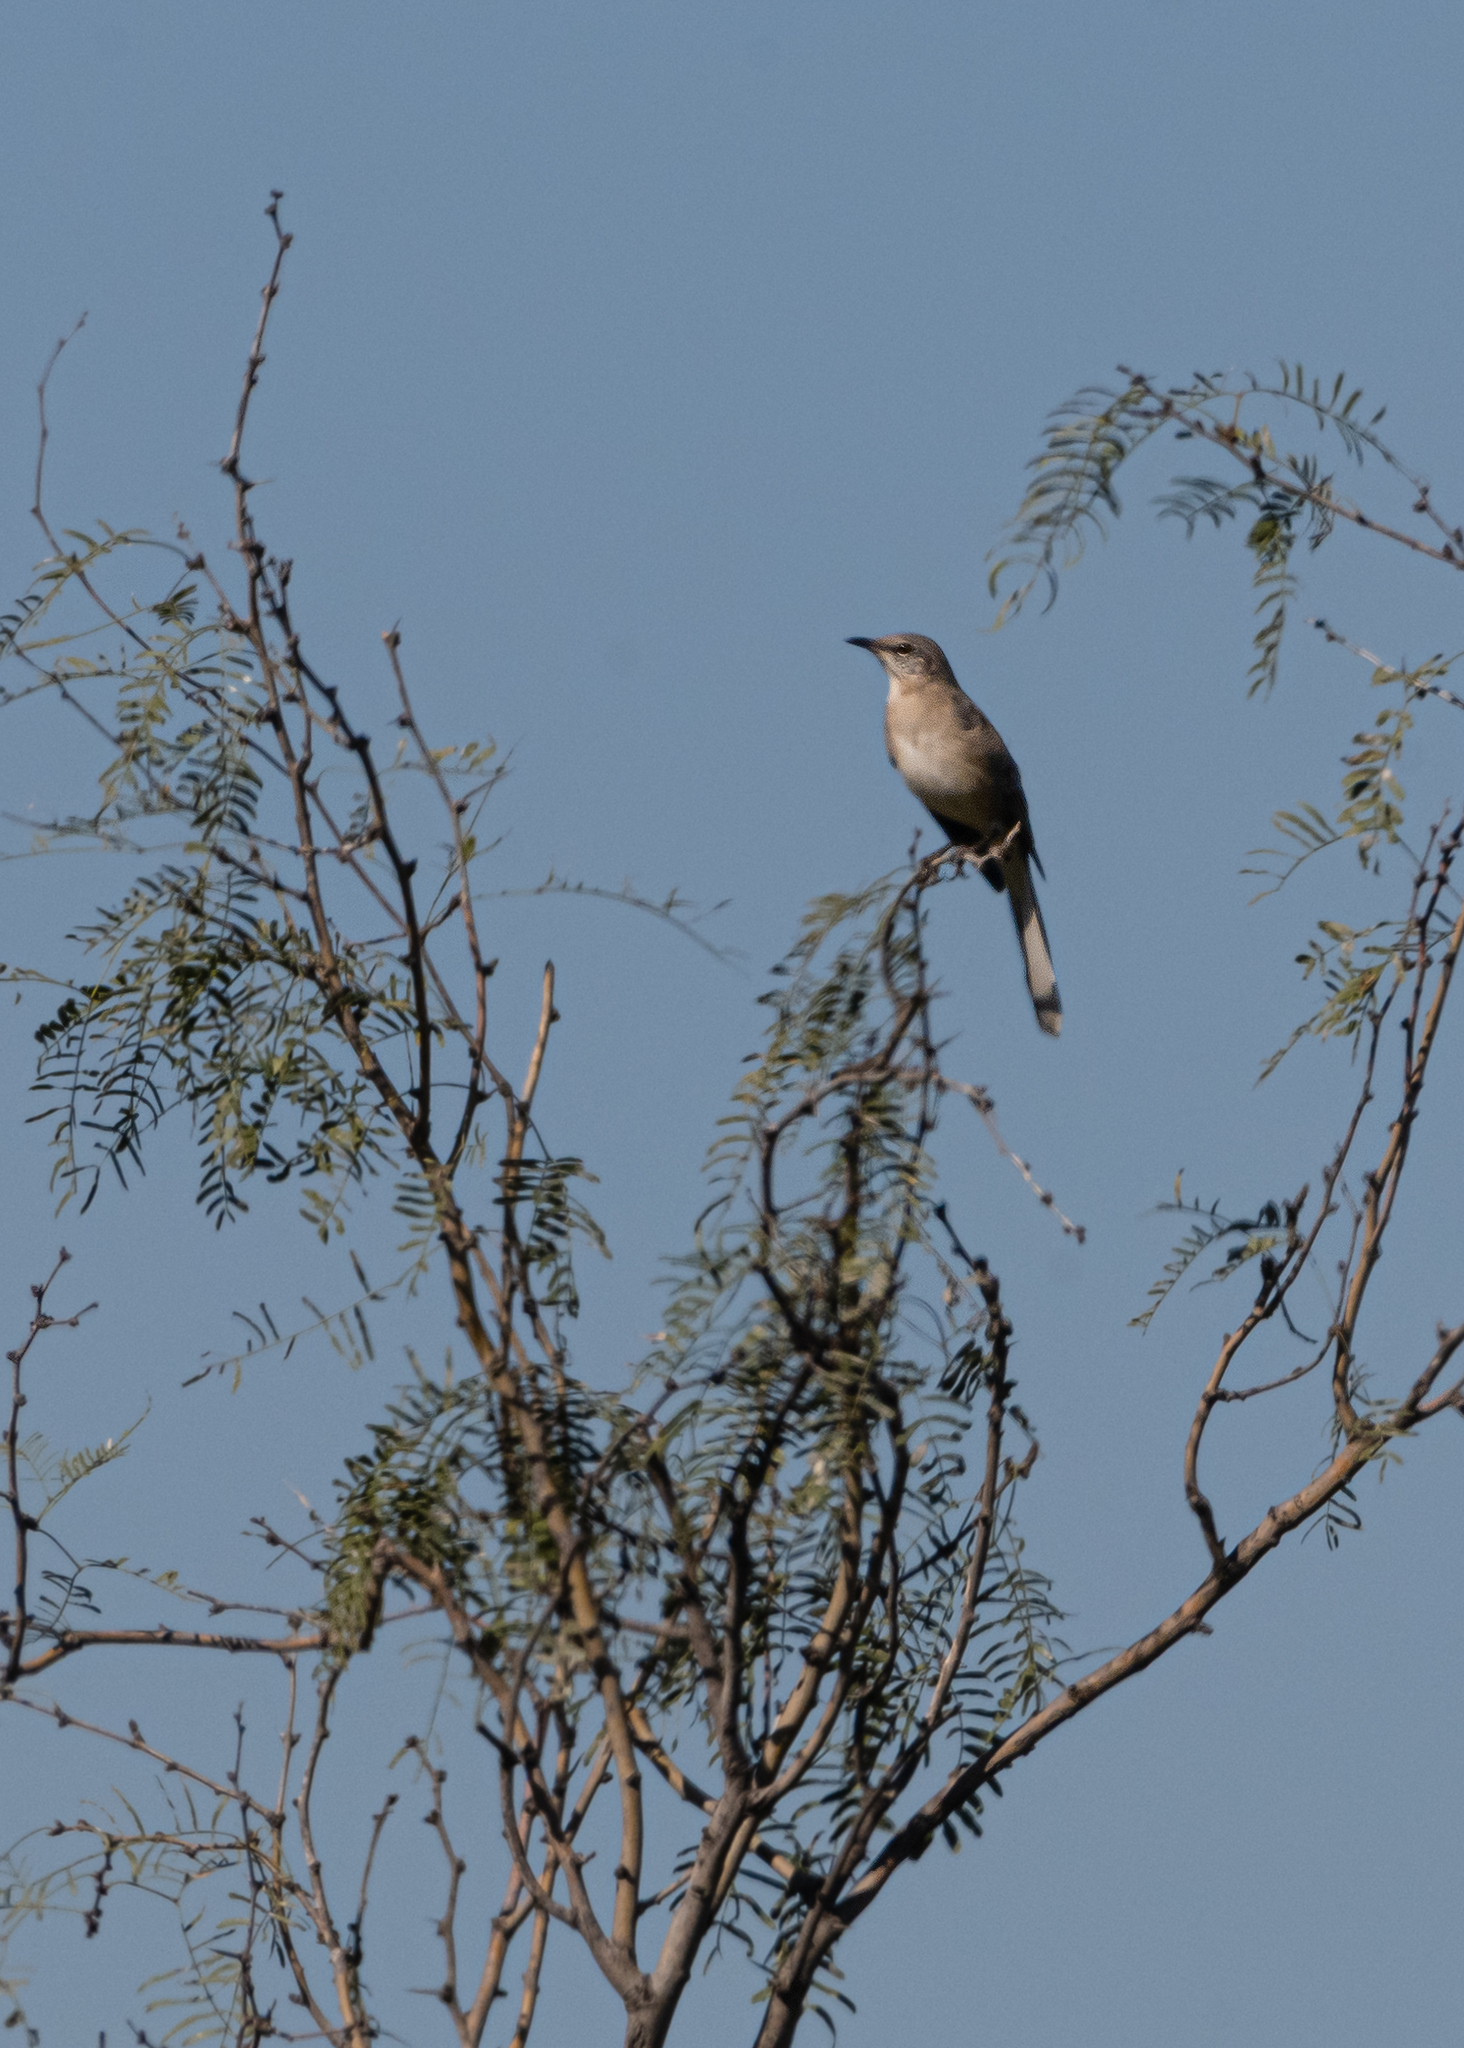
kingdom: Animalia
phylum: Chordata
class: Aves
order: Passeriformes
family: Mimidae
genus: Mimus
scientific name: Mimus polyglottos
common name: Northern mockingbird
